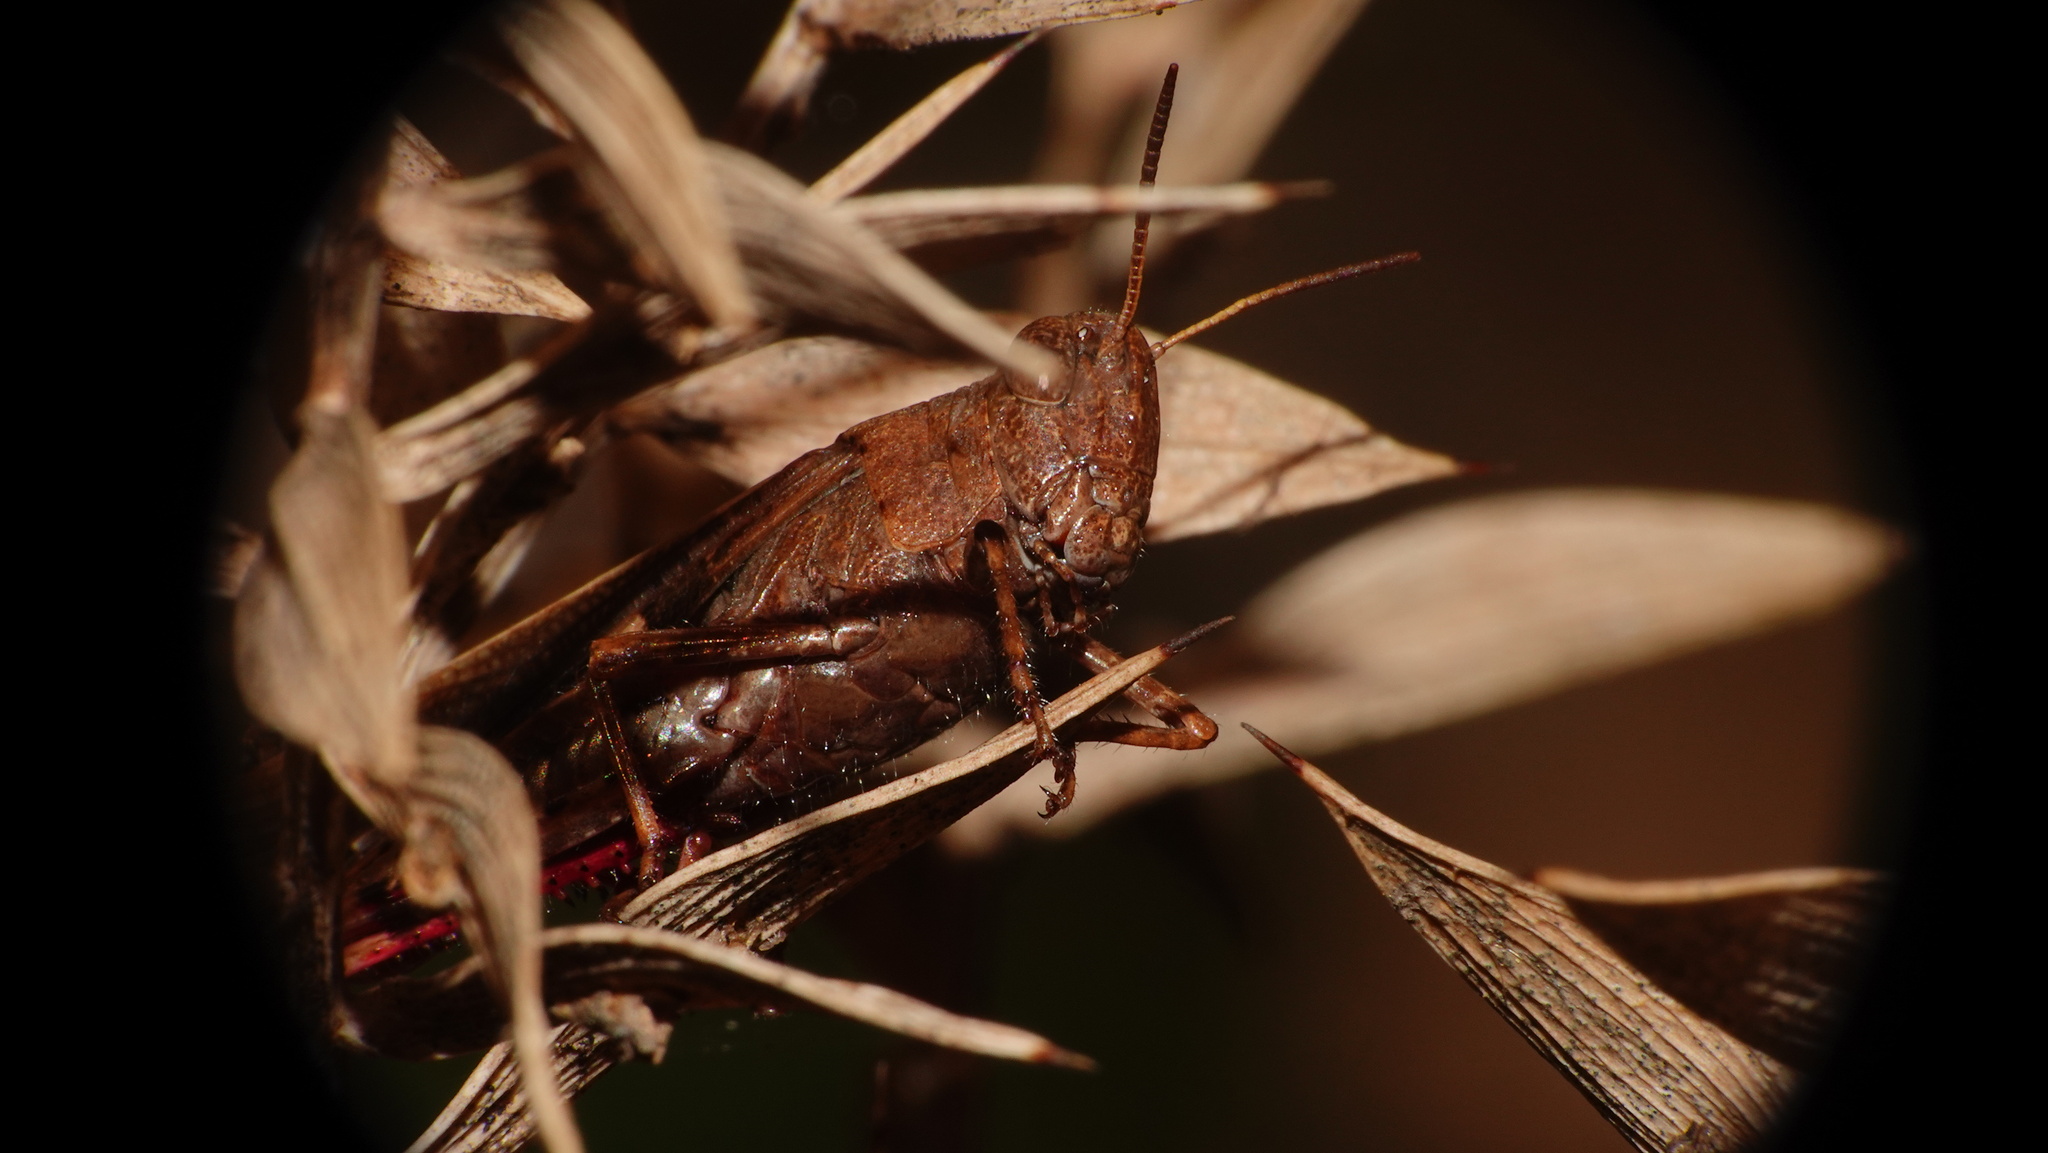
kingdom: Animalia
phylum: Arthropoda
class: Insecta
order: Orthoptera
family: Acrididae
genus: Aiolopus
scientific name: Aiolopus strepens
